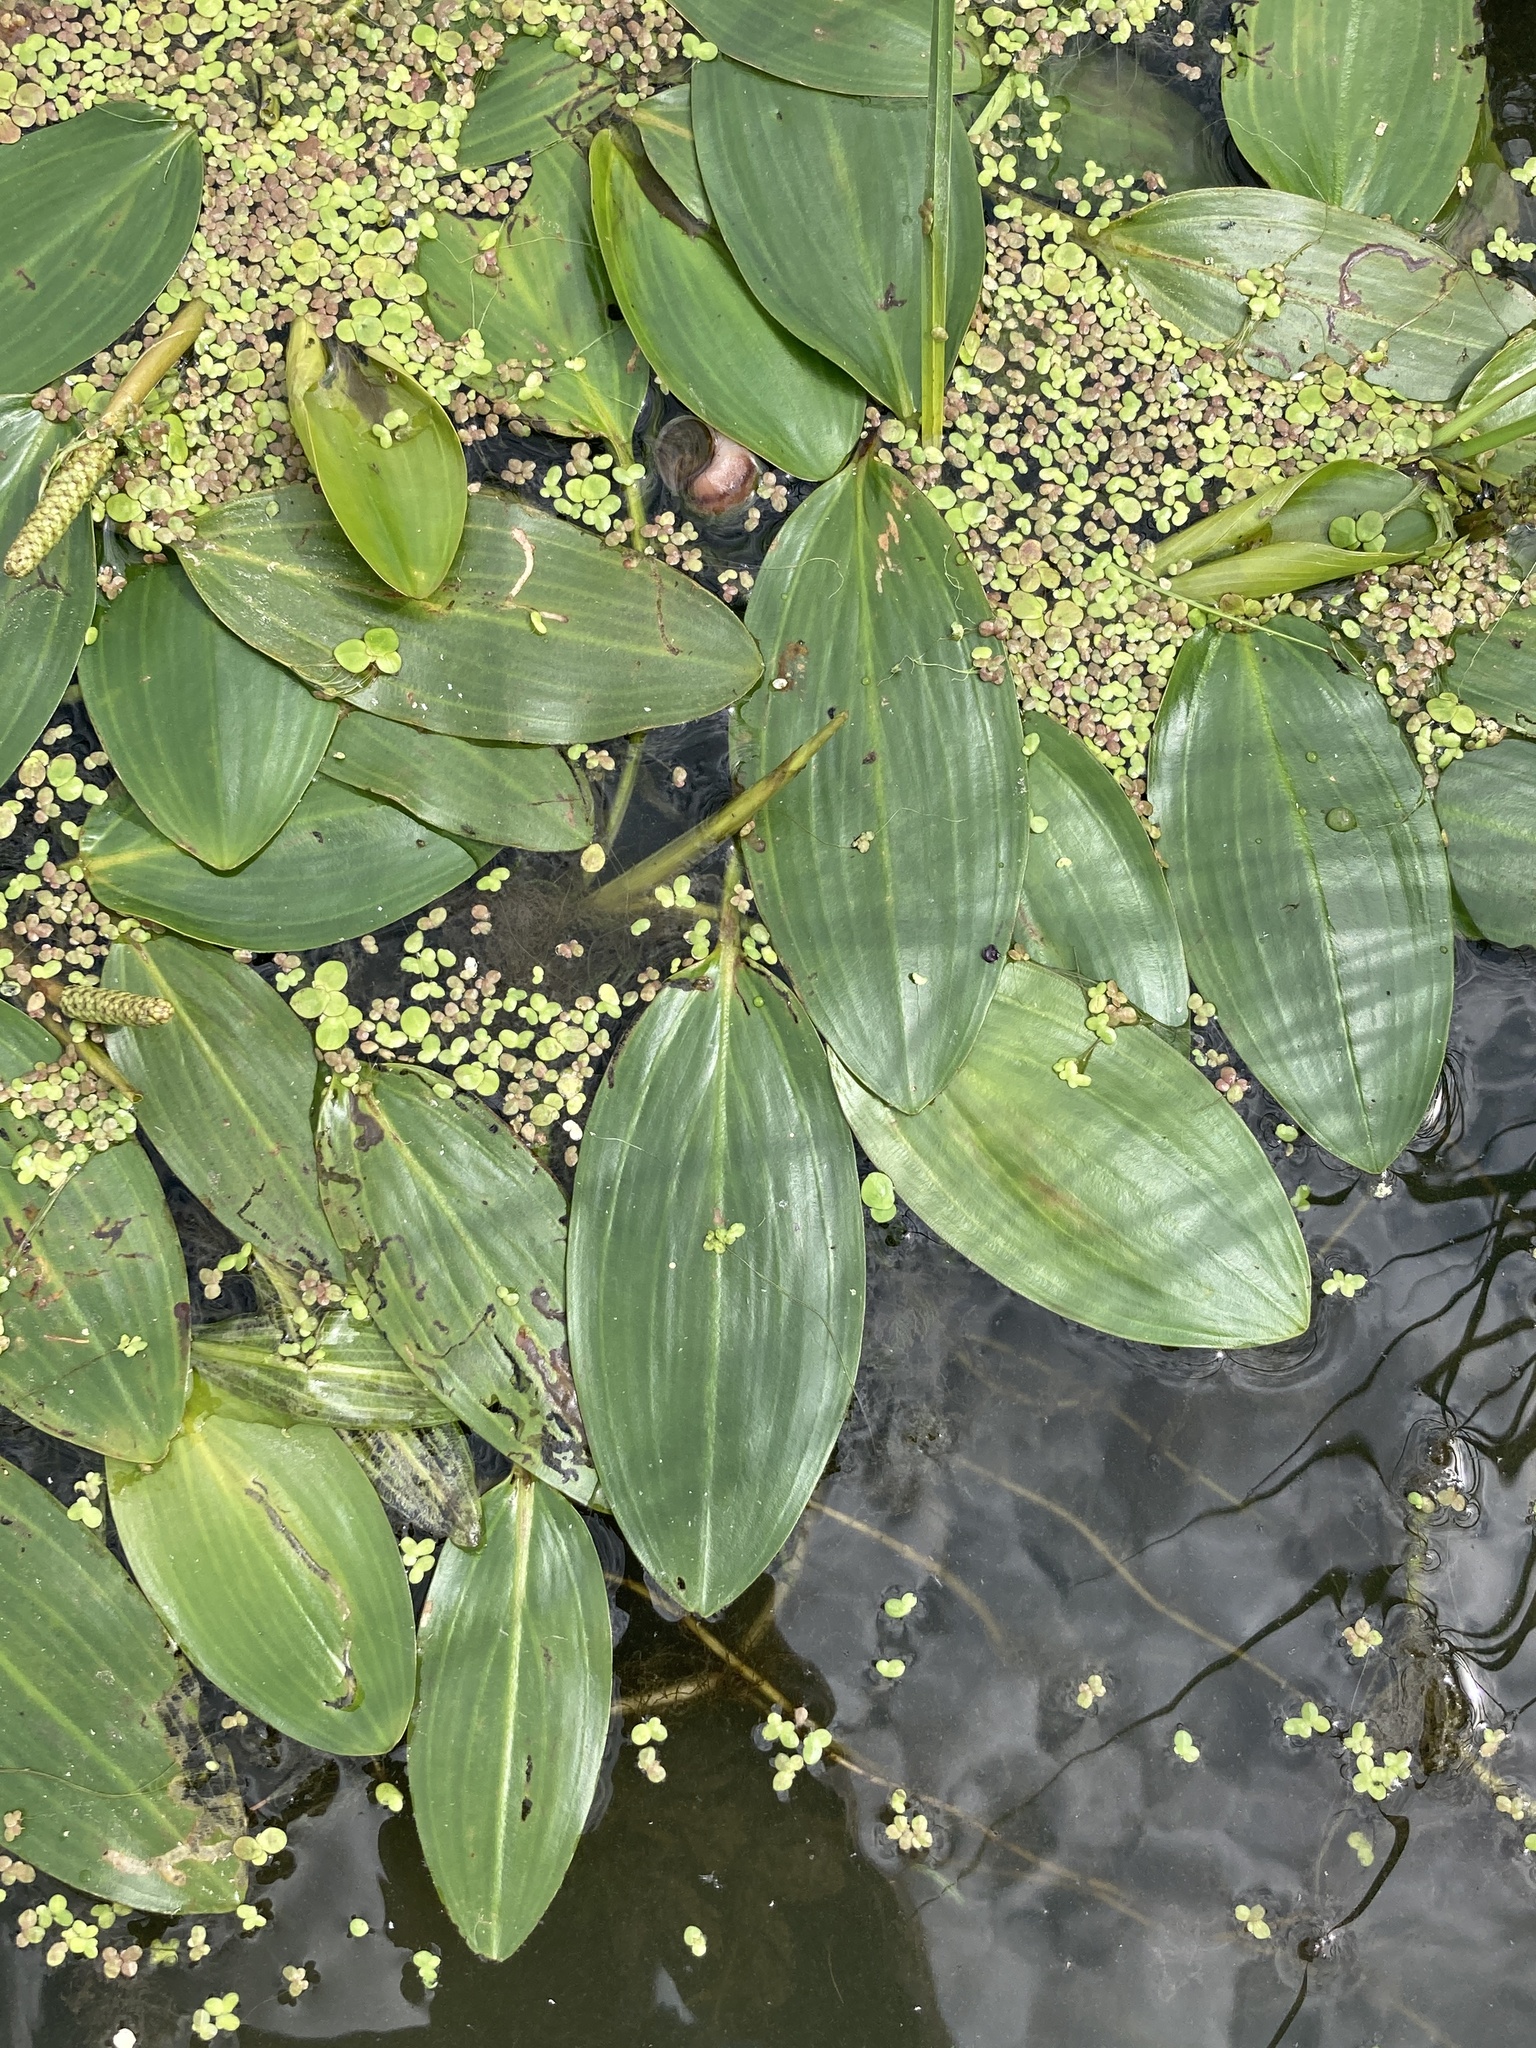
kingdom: Plantae
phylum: Tracheophyta
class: Liliopsida
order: Alismatales
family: Potamogetonaceae
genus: Potamogeton
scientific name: Potamogeton nodosus
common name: Loddon pondweed
